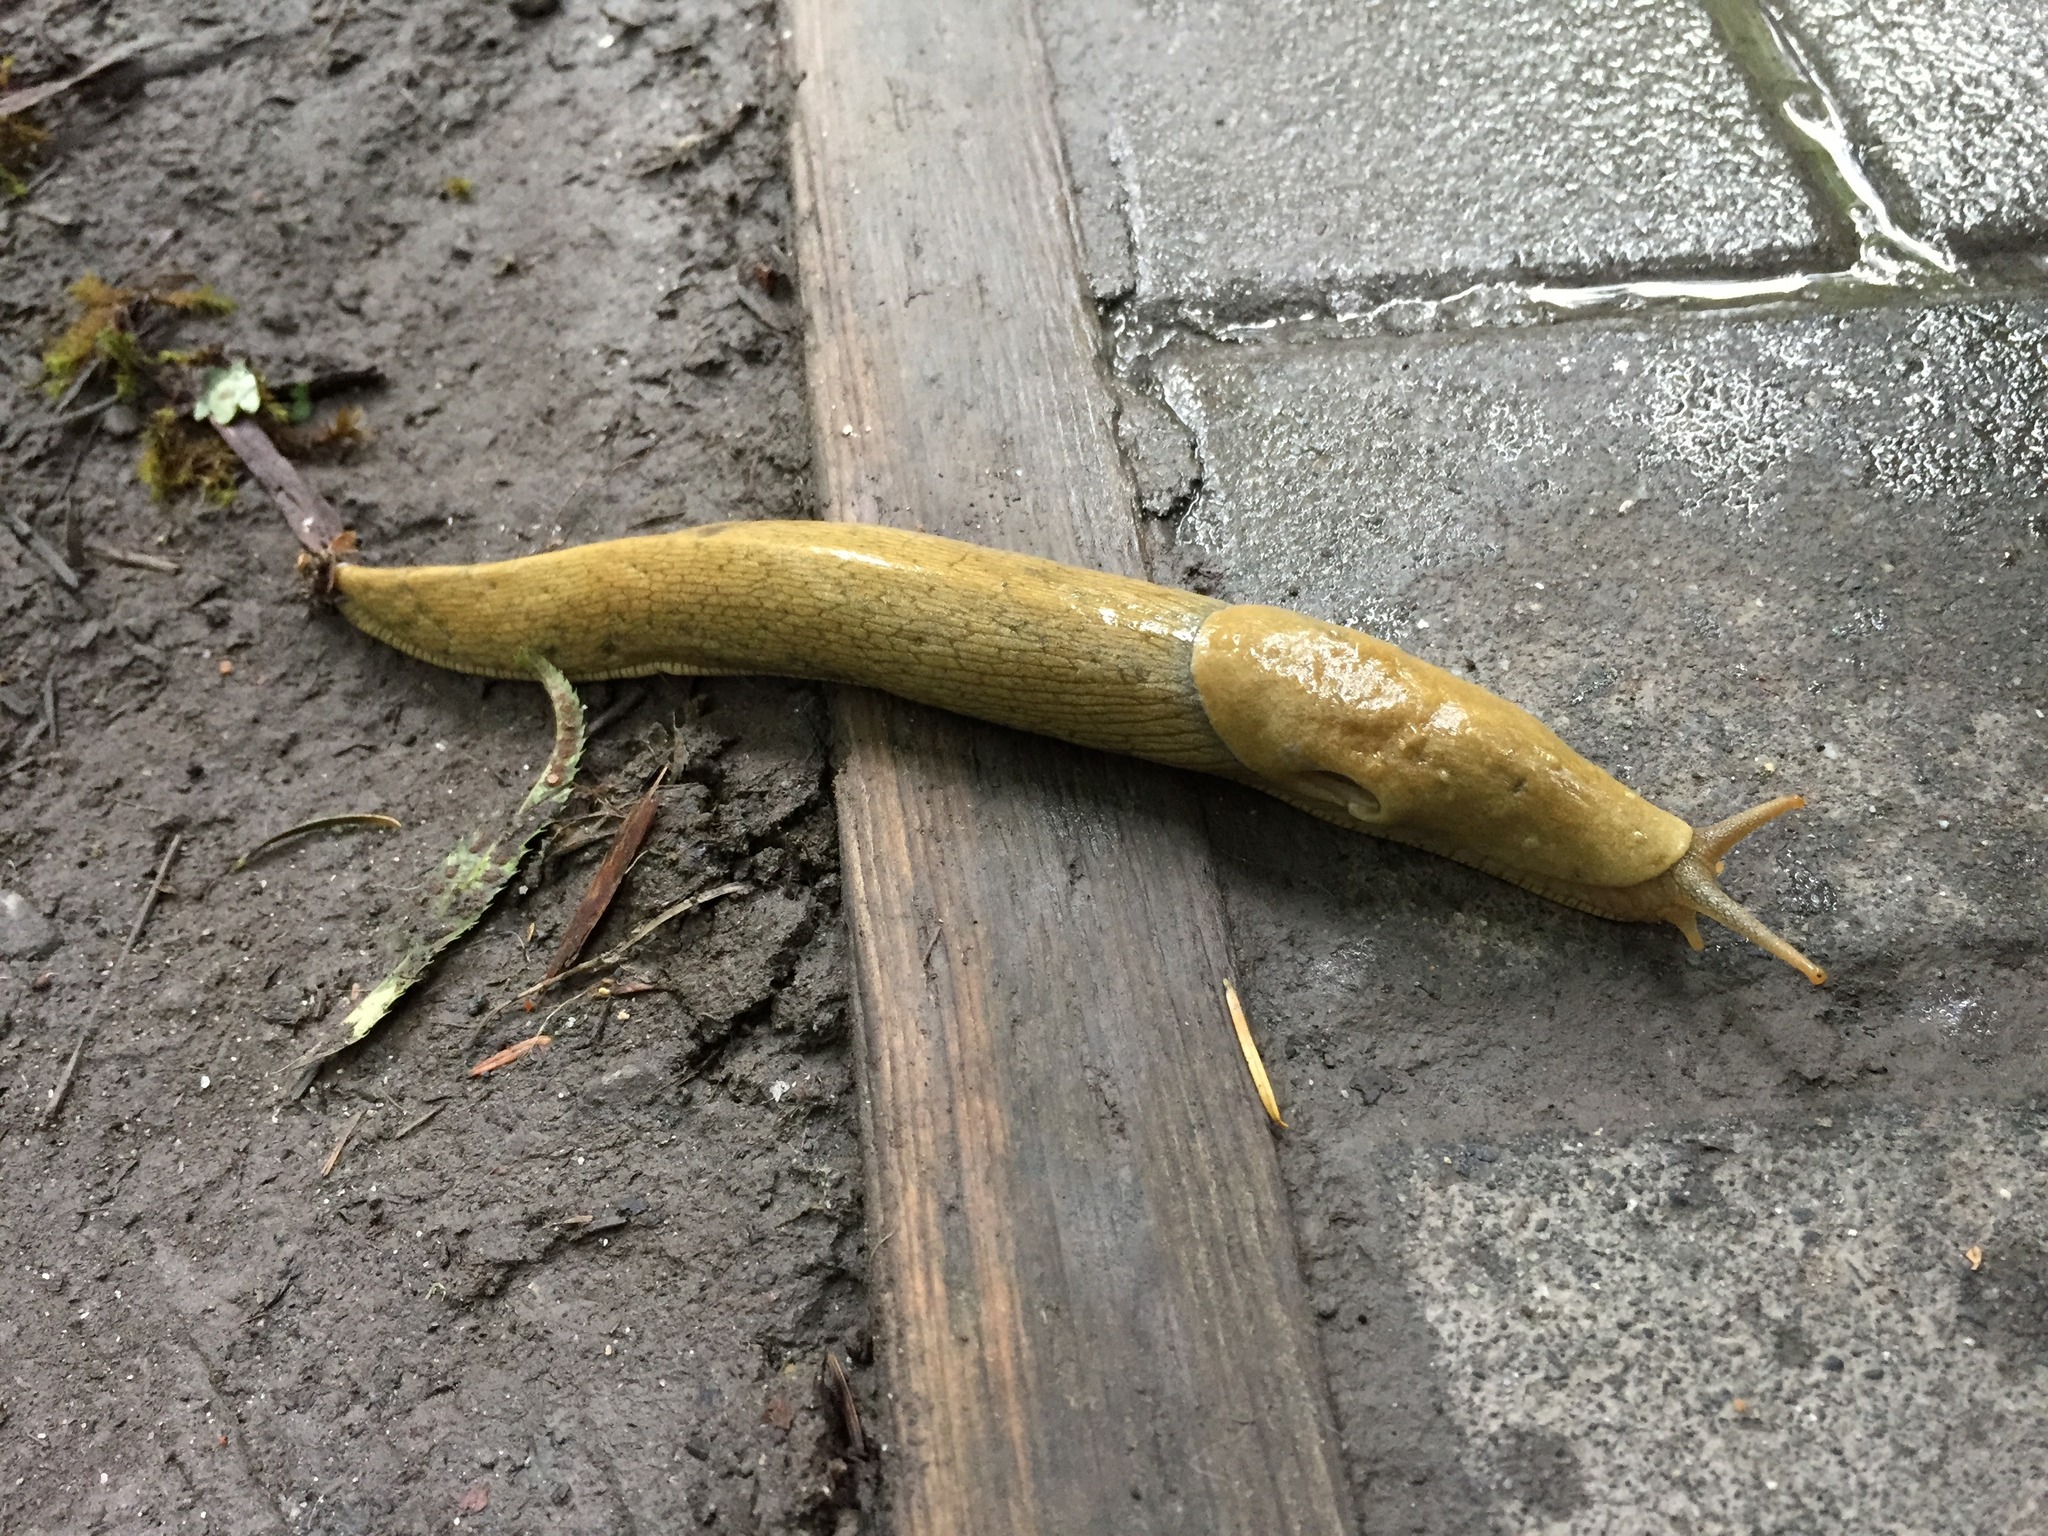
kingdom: Animalia
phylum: Mollusca
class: Gastropoda
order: Stylommatophora
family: Ariolimacidae
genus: Ariolimax
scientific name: Ariolimax columbianus
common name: Pacific banana slug
